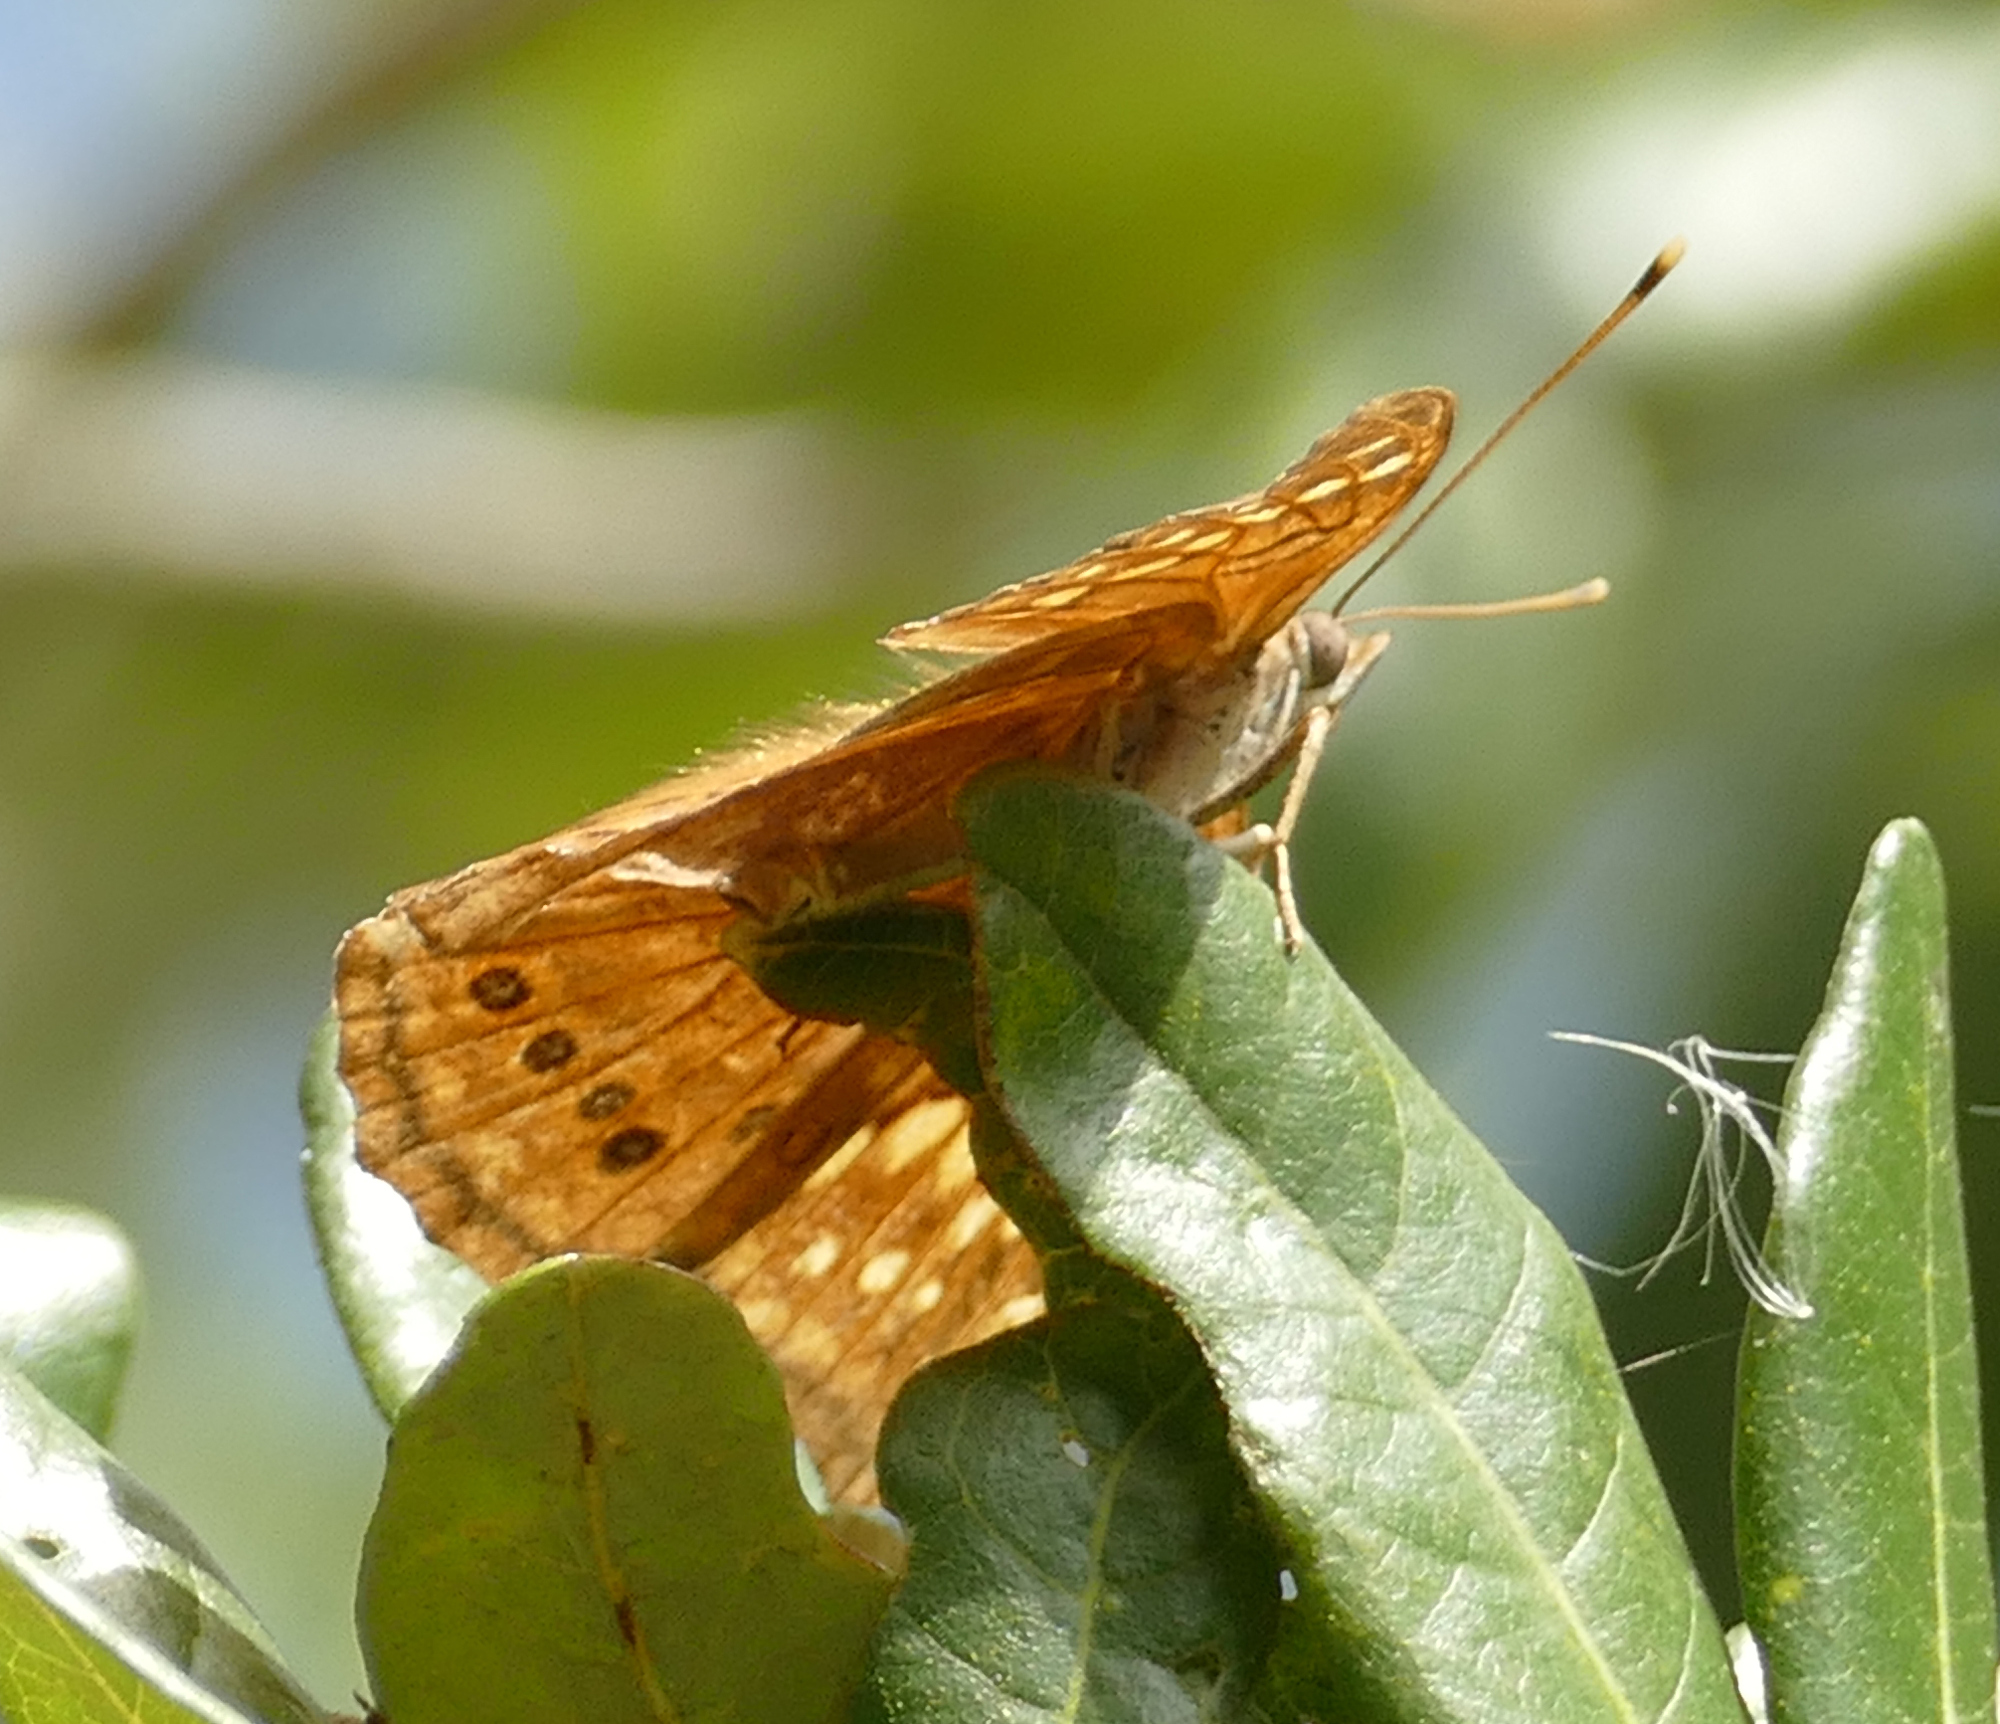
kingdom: Animalia
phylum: Arthropoda
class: Insecta
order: Lepidoptera
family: Nymphalidae
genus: Asterocampa
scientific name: Asterocampa clyton
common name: Tawny emperor
